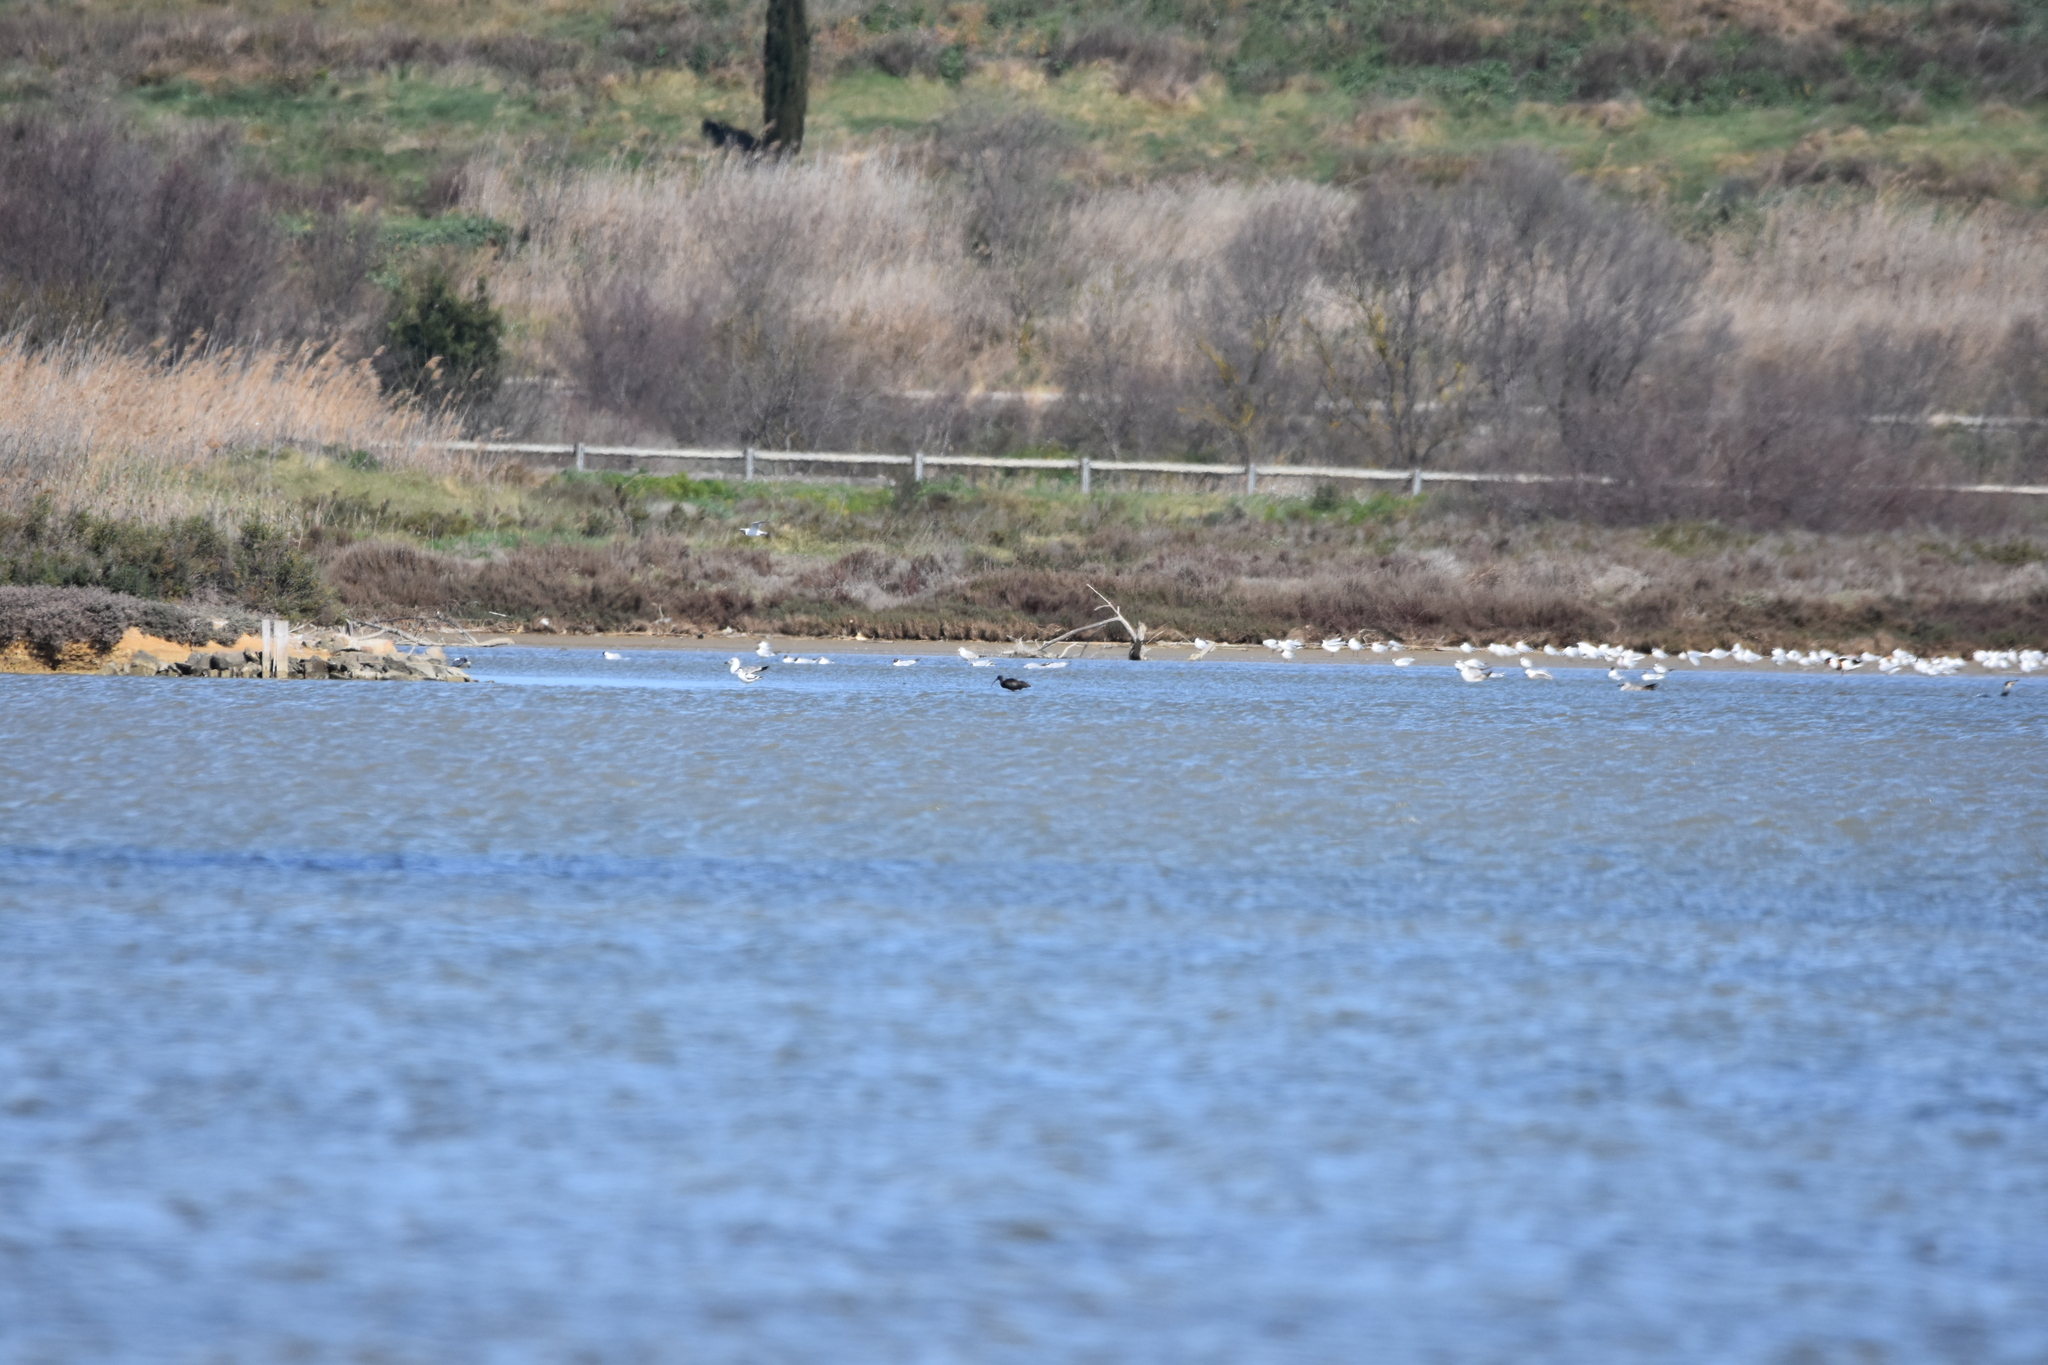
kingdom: Animalia
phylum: Chordata
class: Aves
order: Pelecaniformes
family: Threskiornithidae
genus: Plegadis
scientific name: Plegadis falcinellus
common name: Glossy ibis
